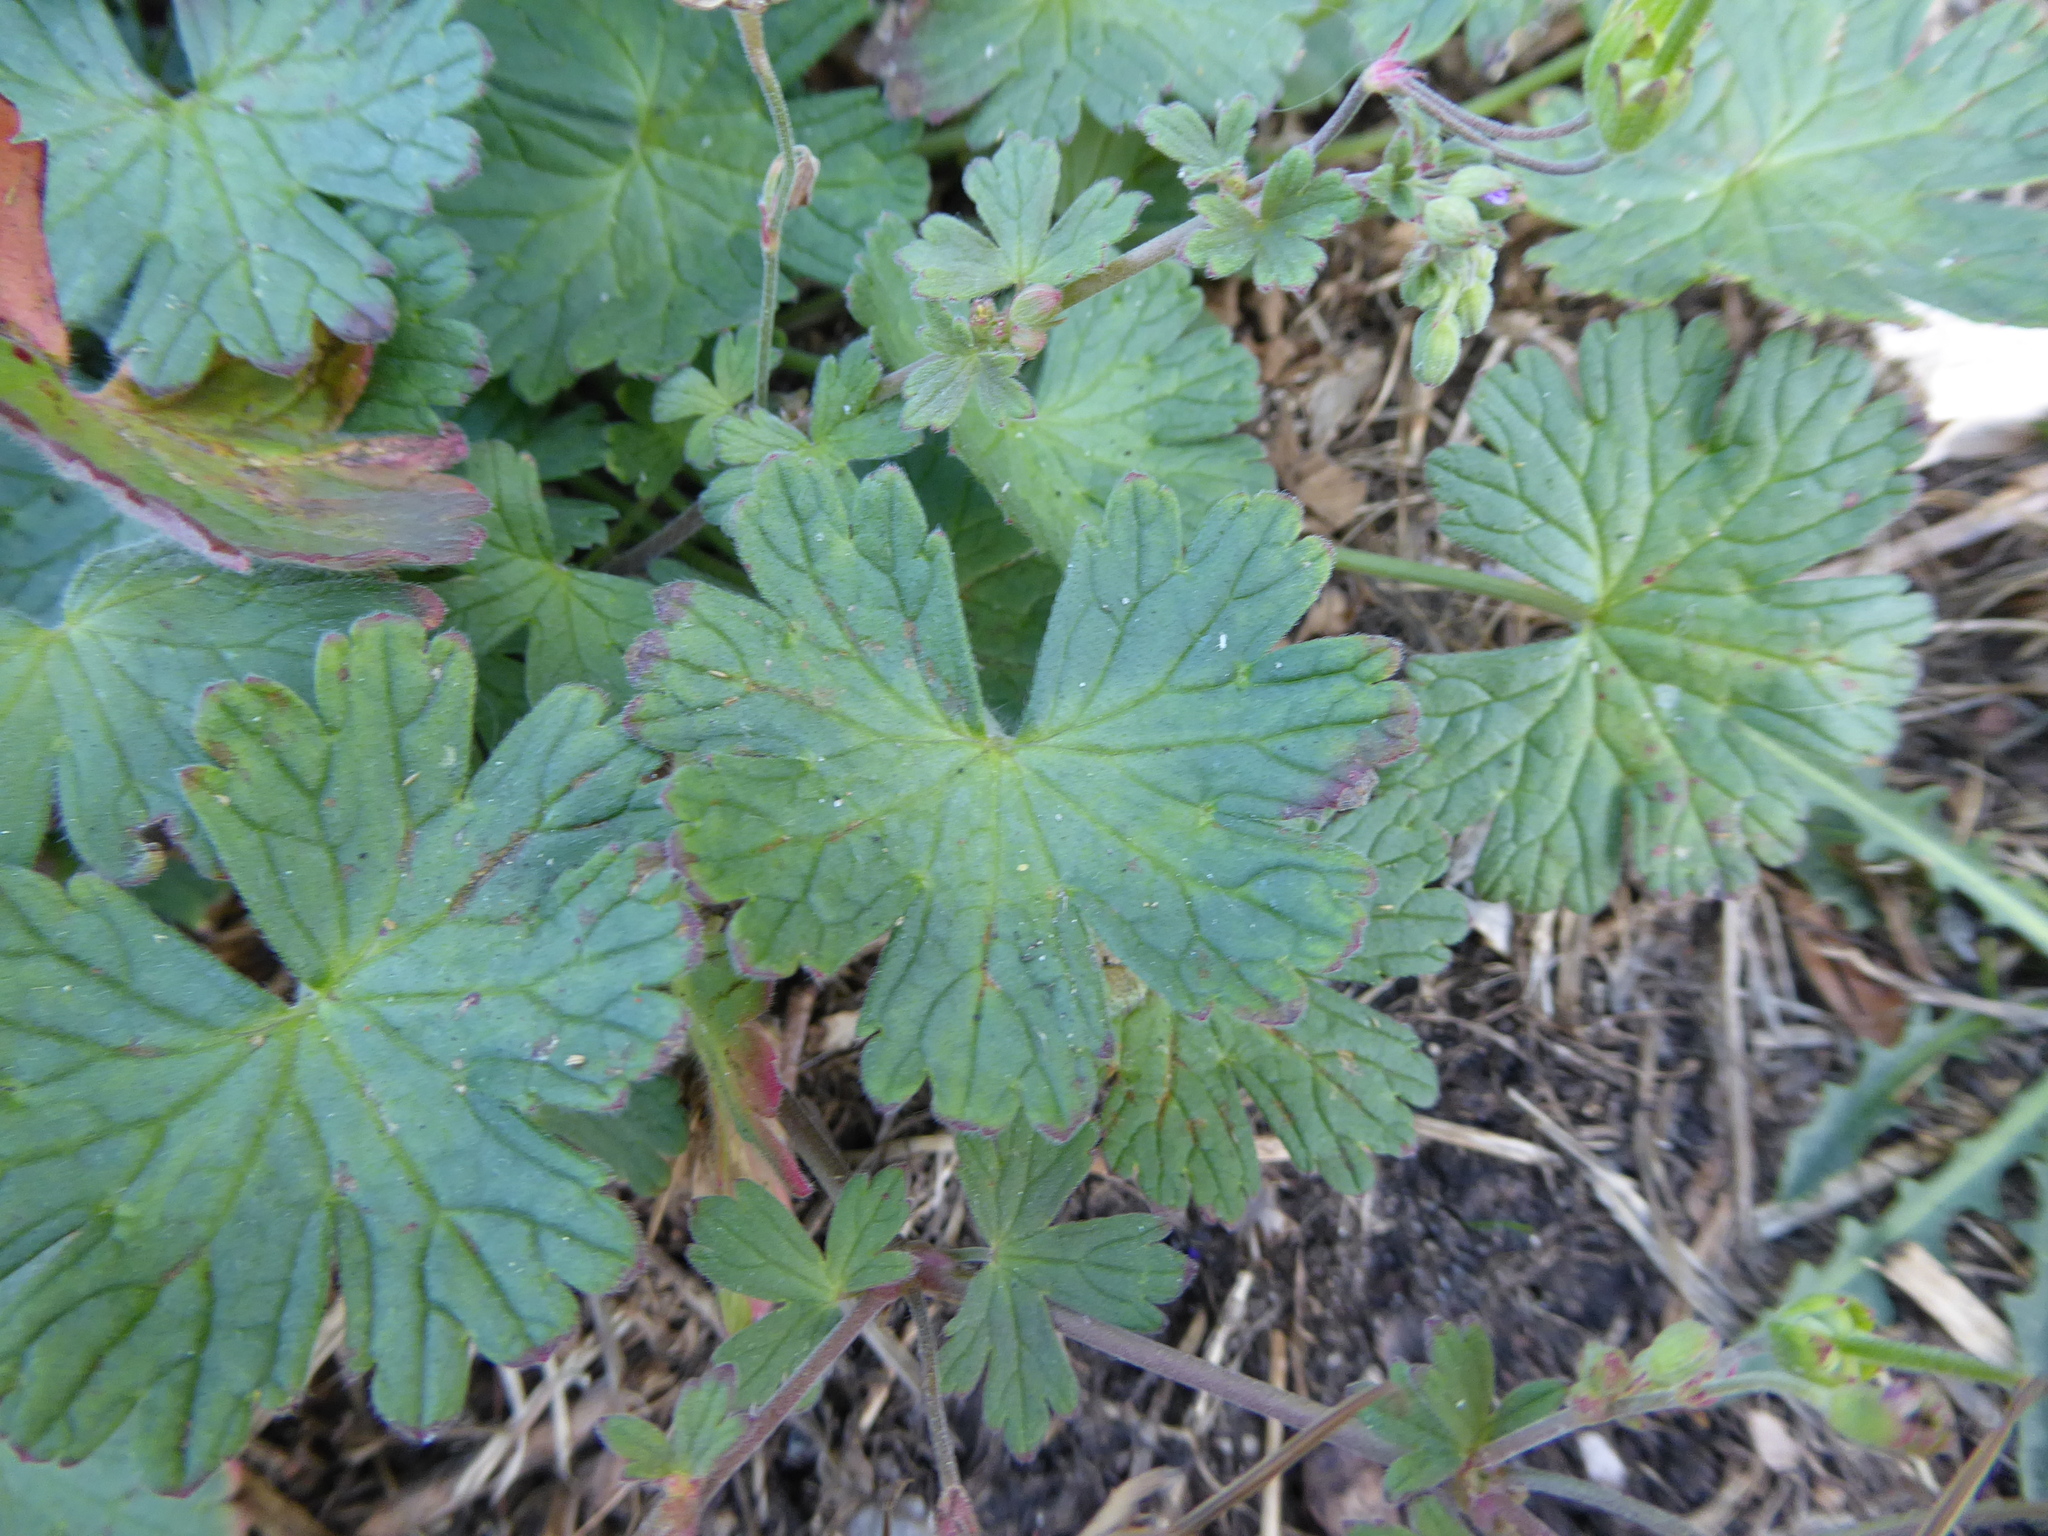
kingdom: Plantae
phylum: Tracheophyta
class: Magnoliopsida
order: Geraniales
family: Geraniaceae
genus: Geranium
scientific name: Geranium pyrenaicum
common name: Hedgerow crane's-bill
